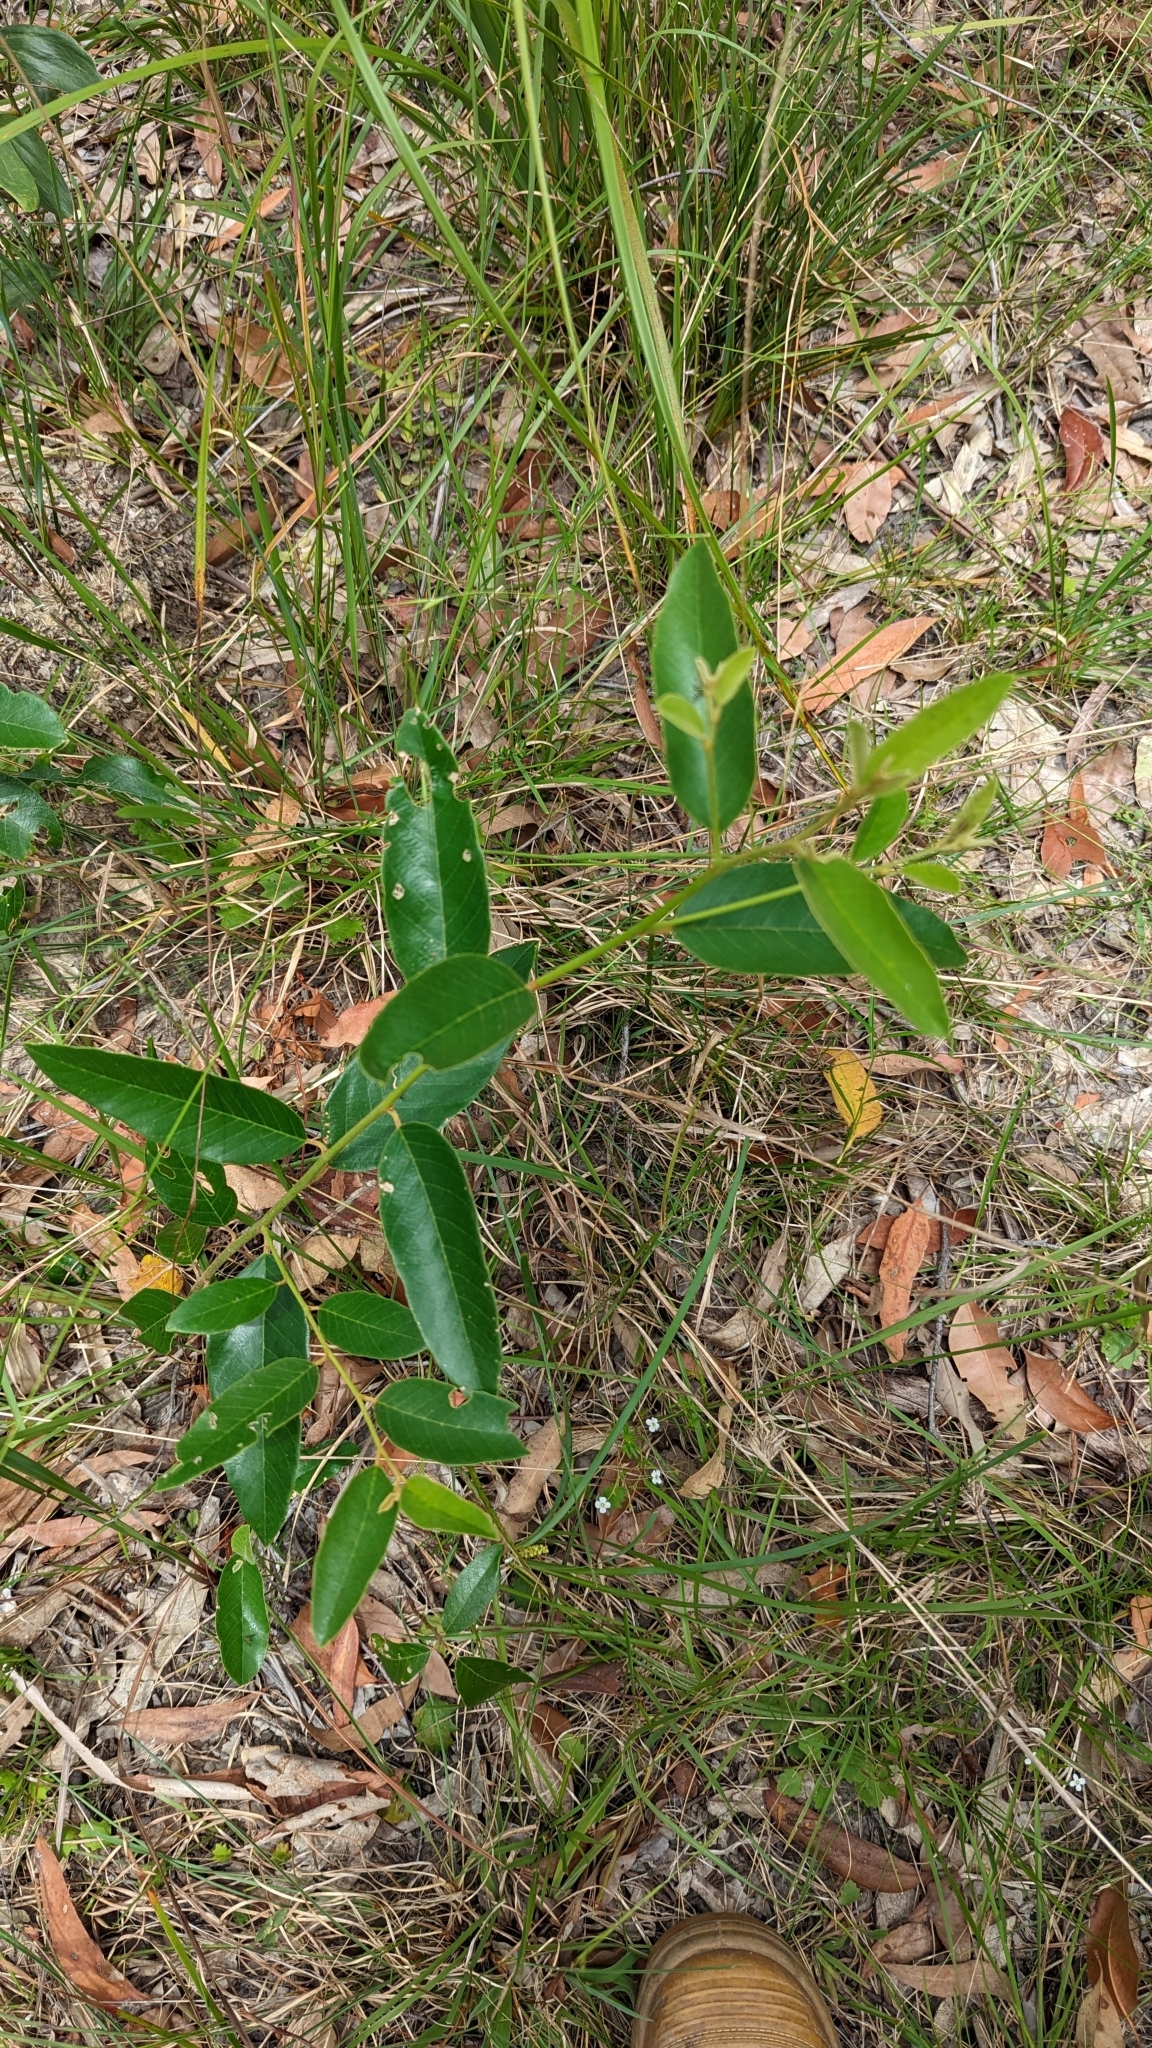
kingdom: Plantae
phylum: Tracheophyta
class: Magnoliopsida
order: Rosales
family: Rhamnaceae
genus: Alphitonia
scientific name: Alphitonia excelsa
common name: Red ash
